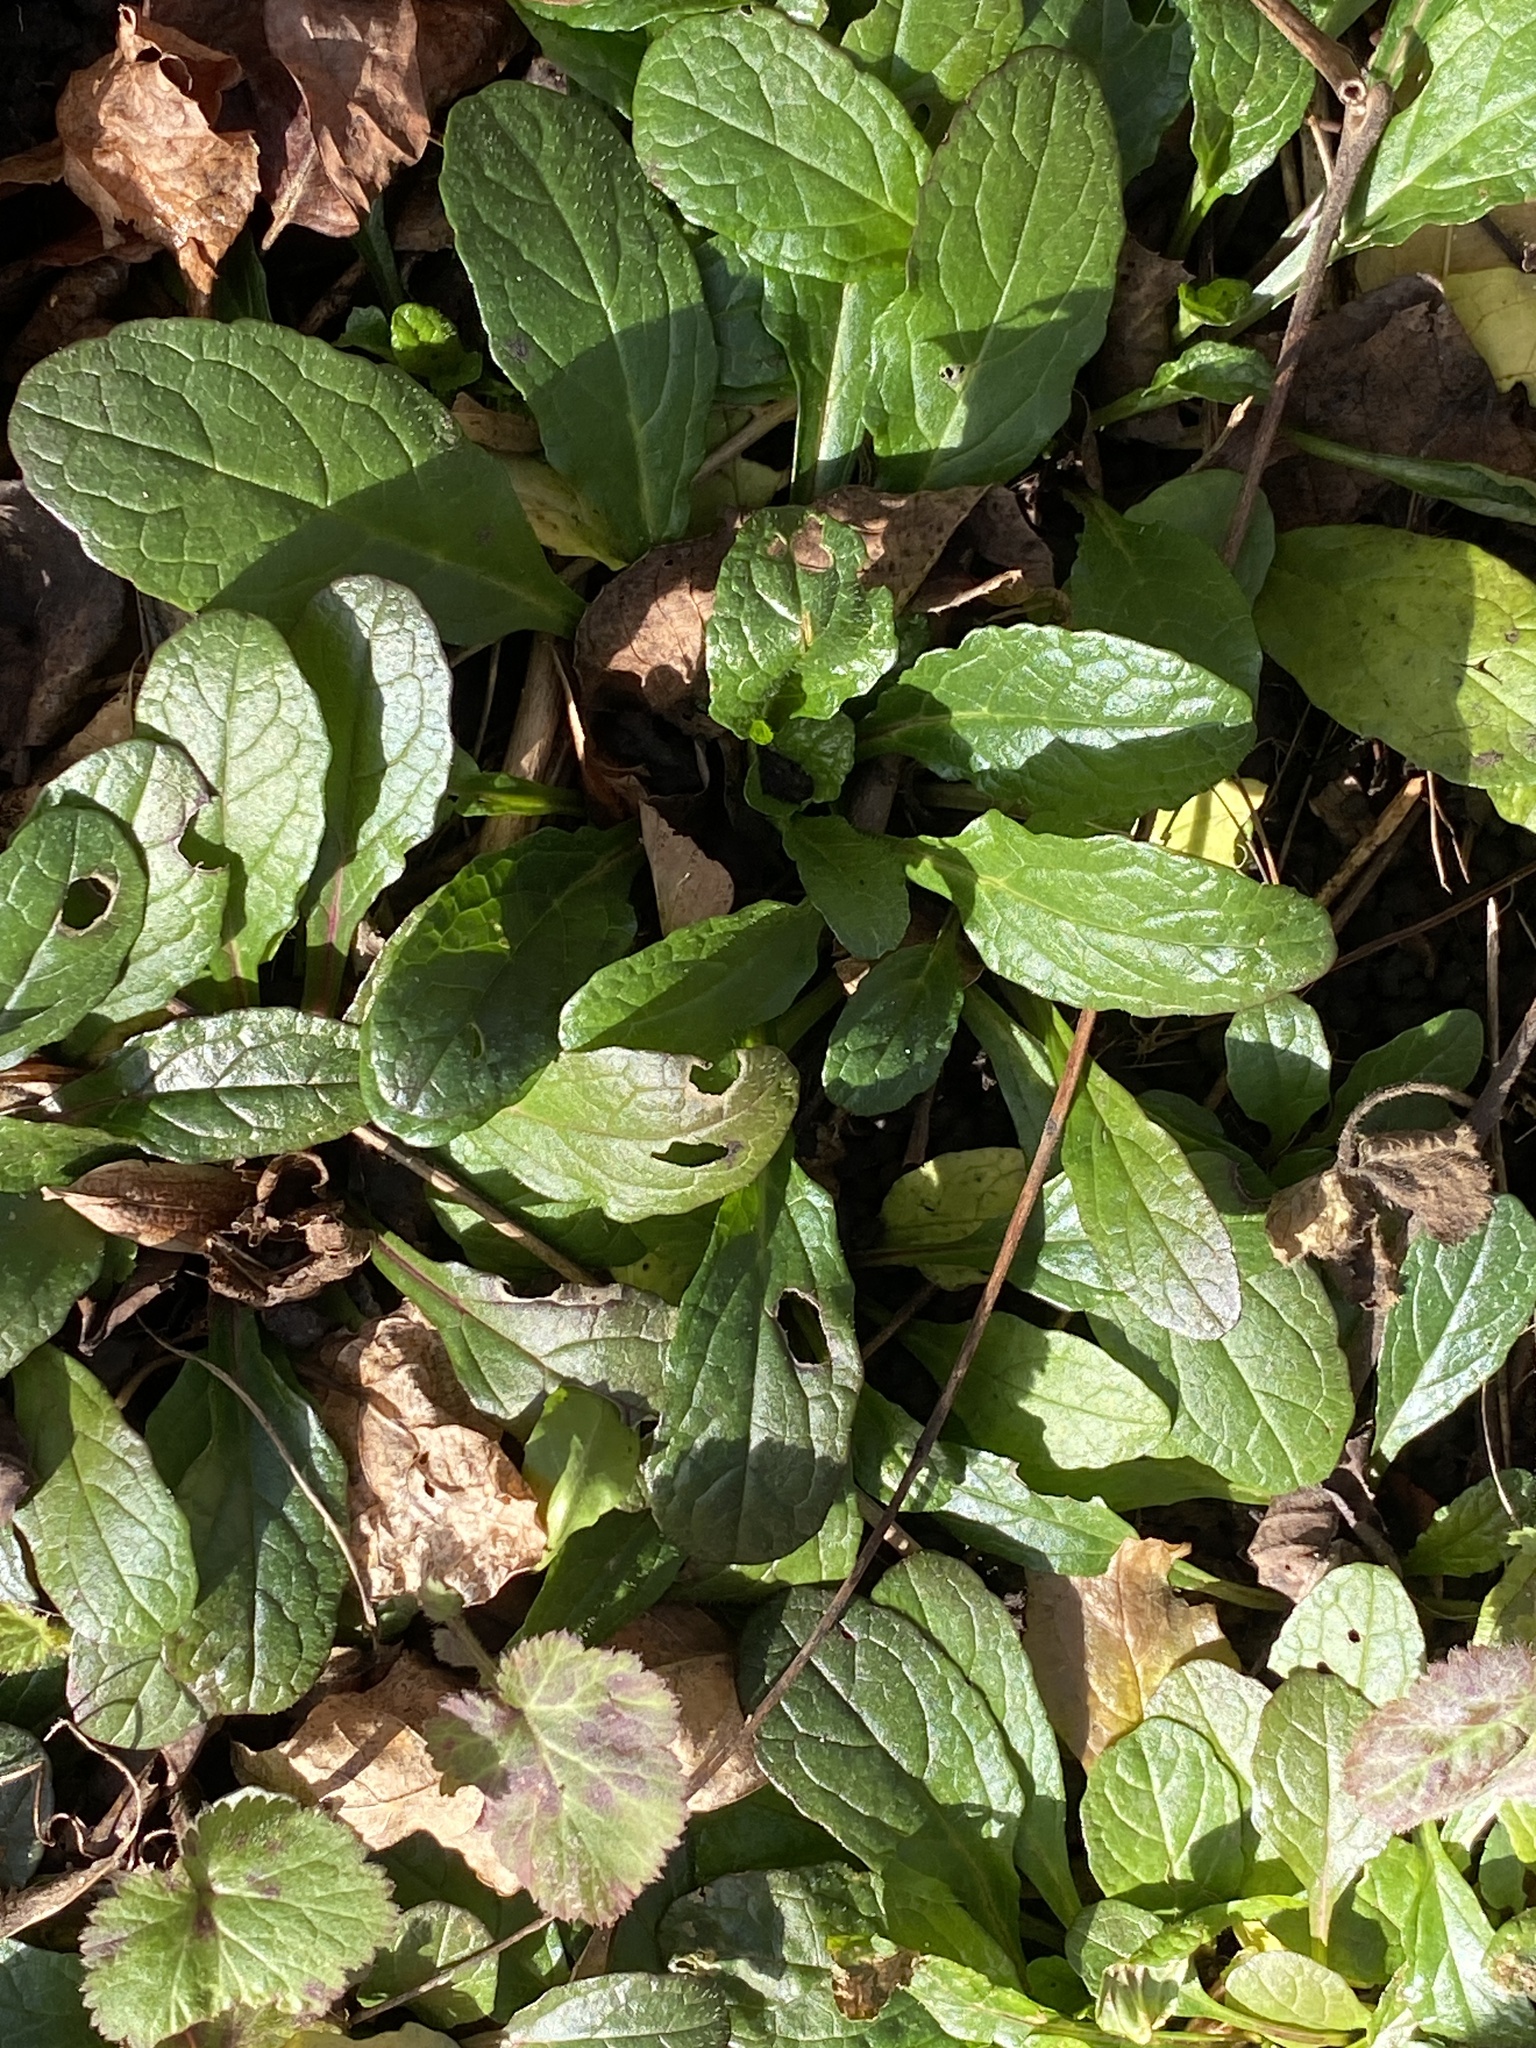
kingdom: Plantae
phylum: Tracheophyta
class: Magnoliopsida
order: Lamiales
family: Lamiaceae
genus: Ajuga
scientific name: Ajuga reptans
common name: Bugle
